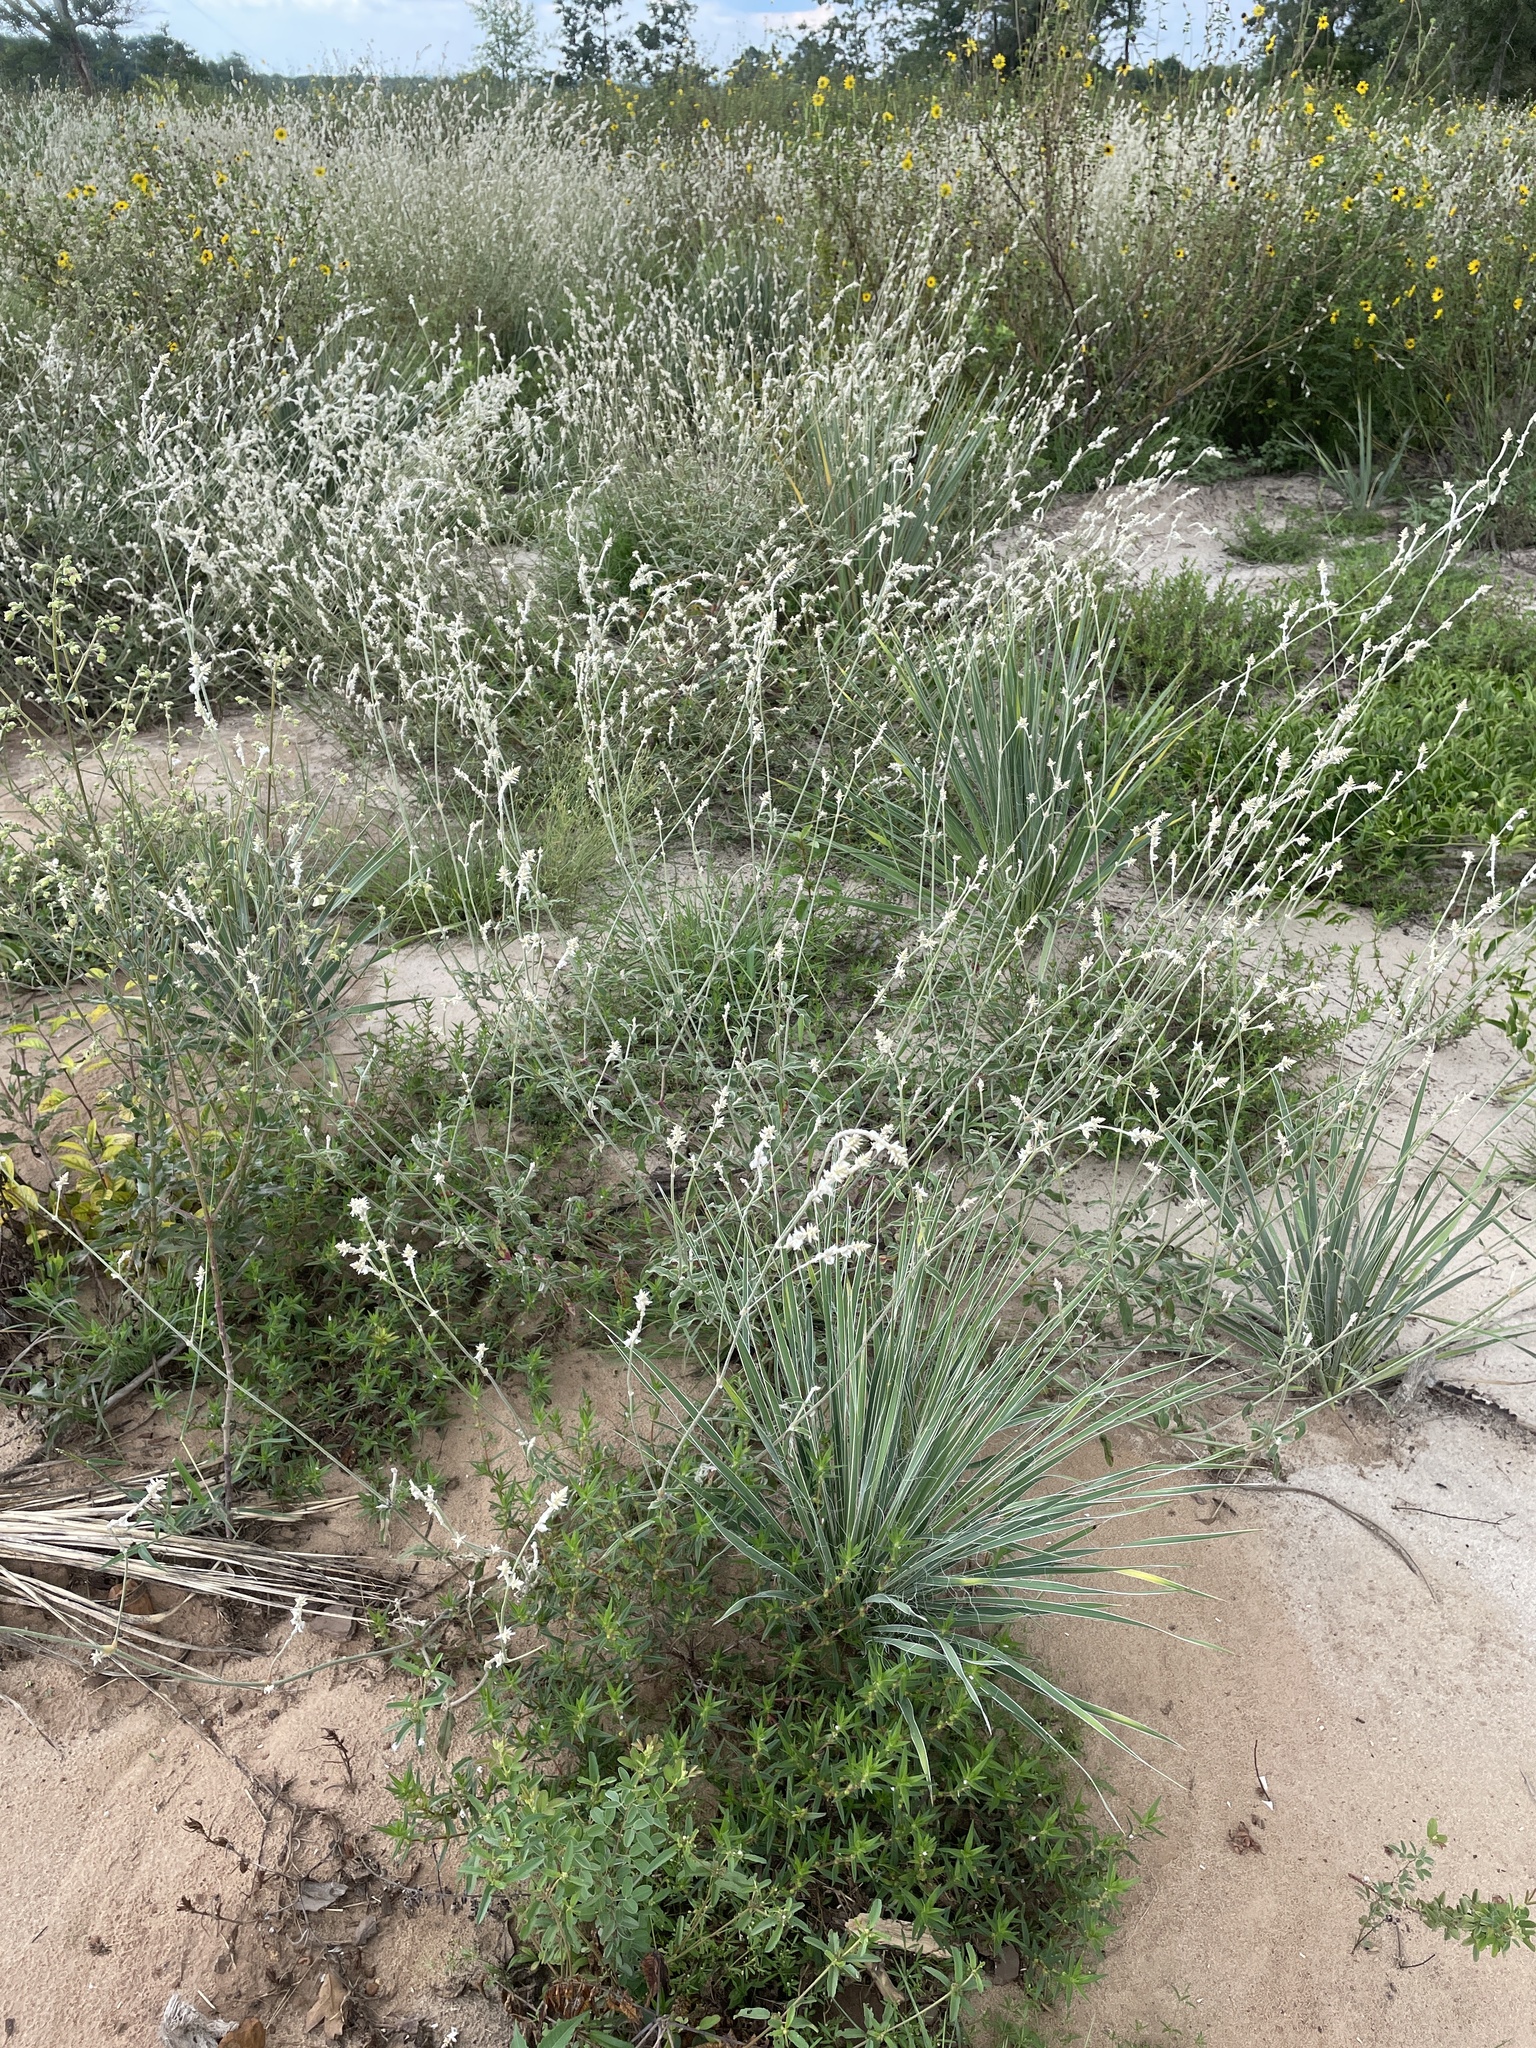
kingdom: Plantae
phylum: Tracheophyta
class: Magnoliopsida
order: Caryophyllales
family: Amaranthaceae
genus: Froelichia
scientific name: Froelichia floridana
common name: Florida snake-cotton
